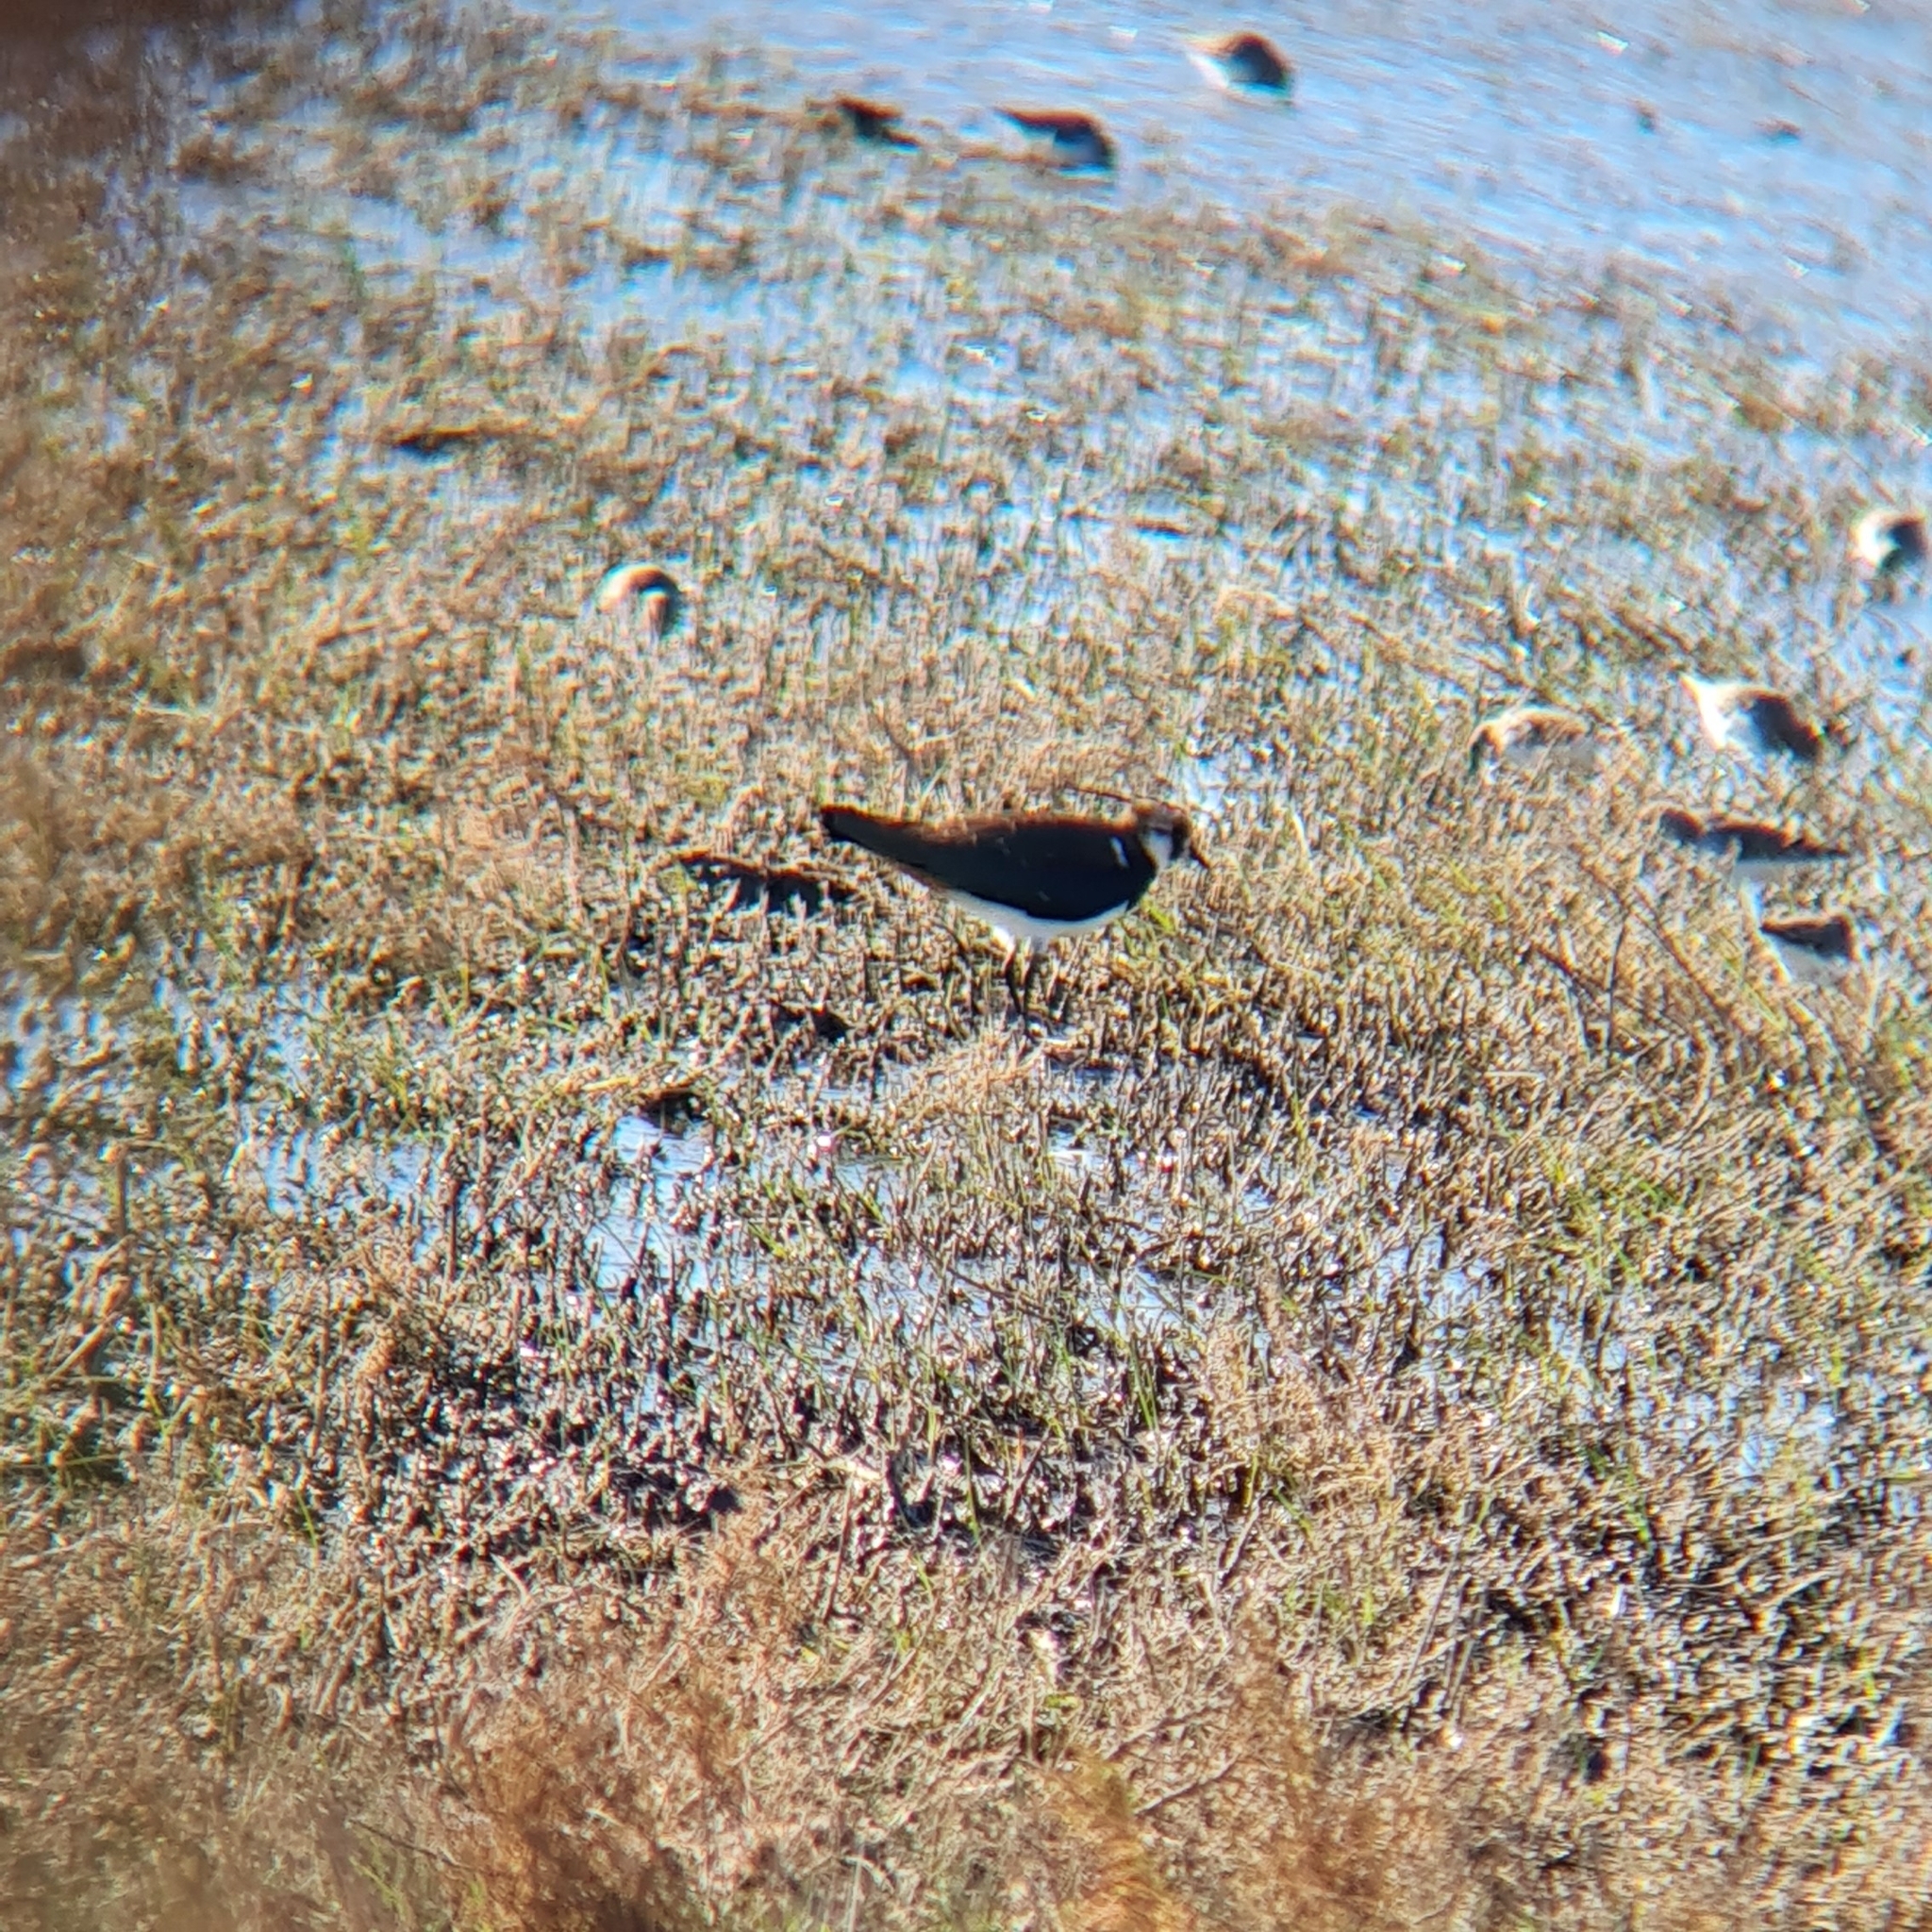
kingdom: Animalia
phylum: Chordata
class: Aves
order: Charadriiformes
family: Charadriidae
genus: Vanellus
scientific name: Vanellus vanellus
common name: Northern lapwing
